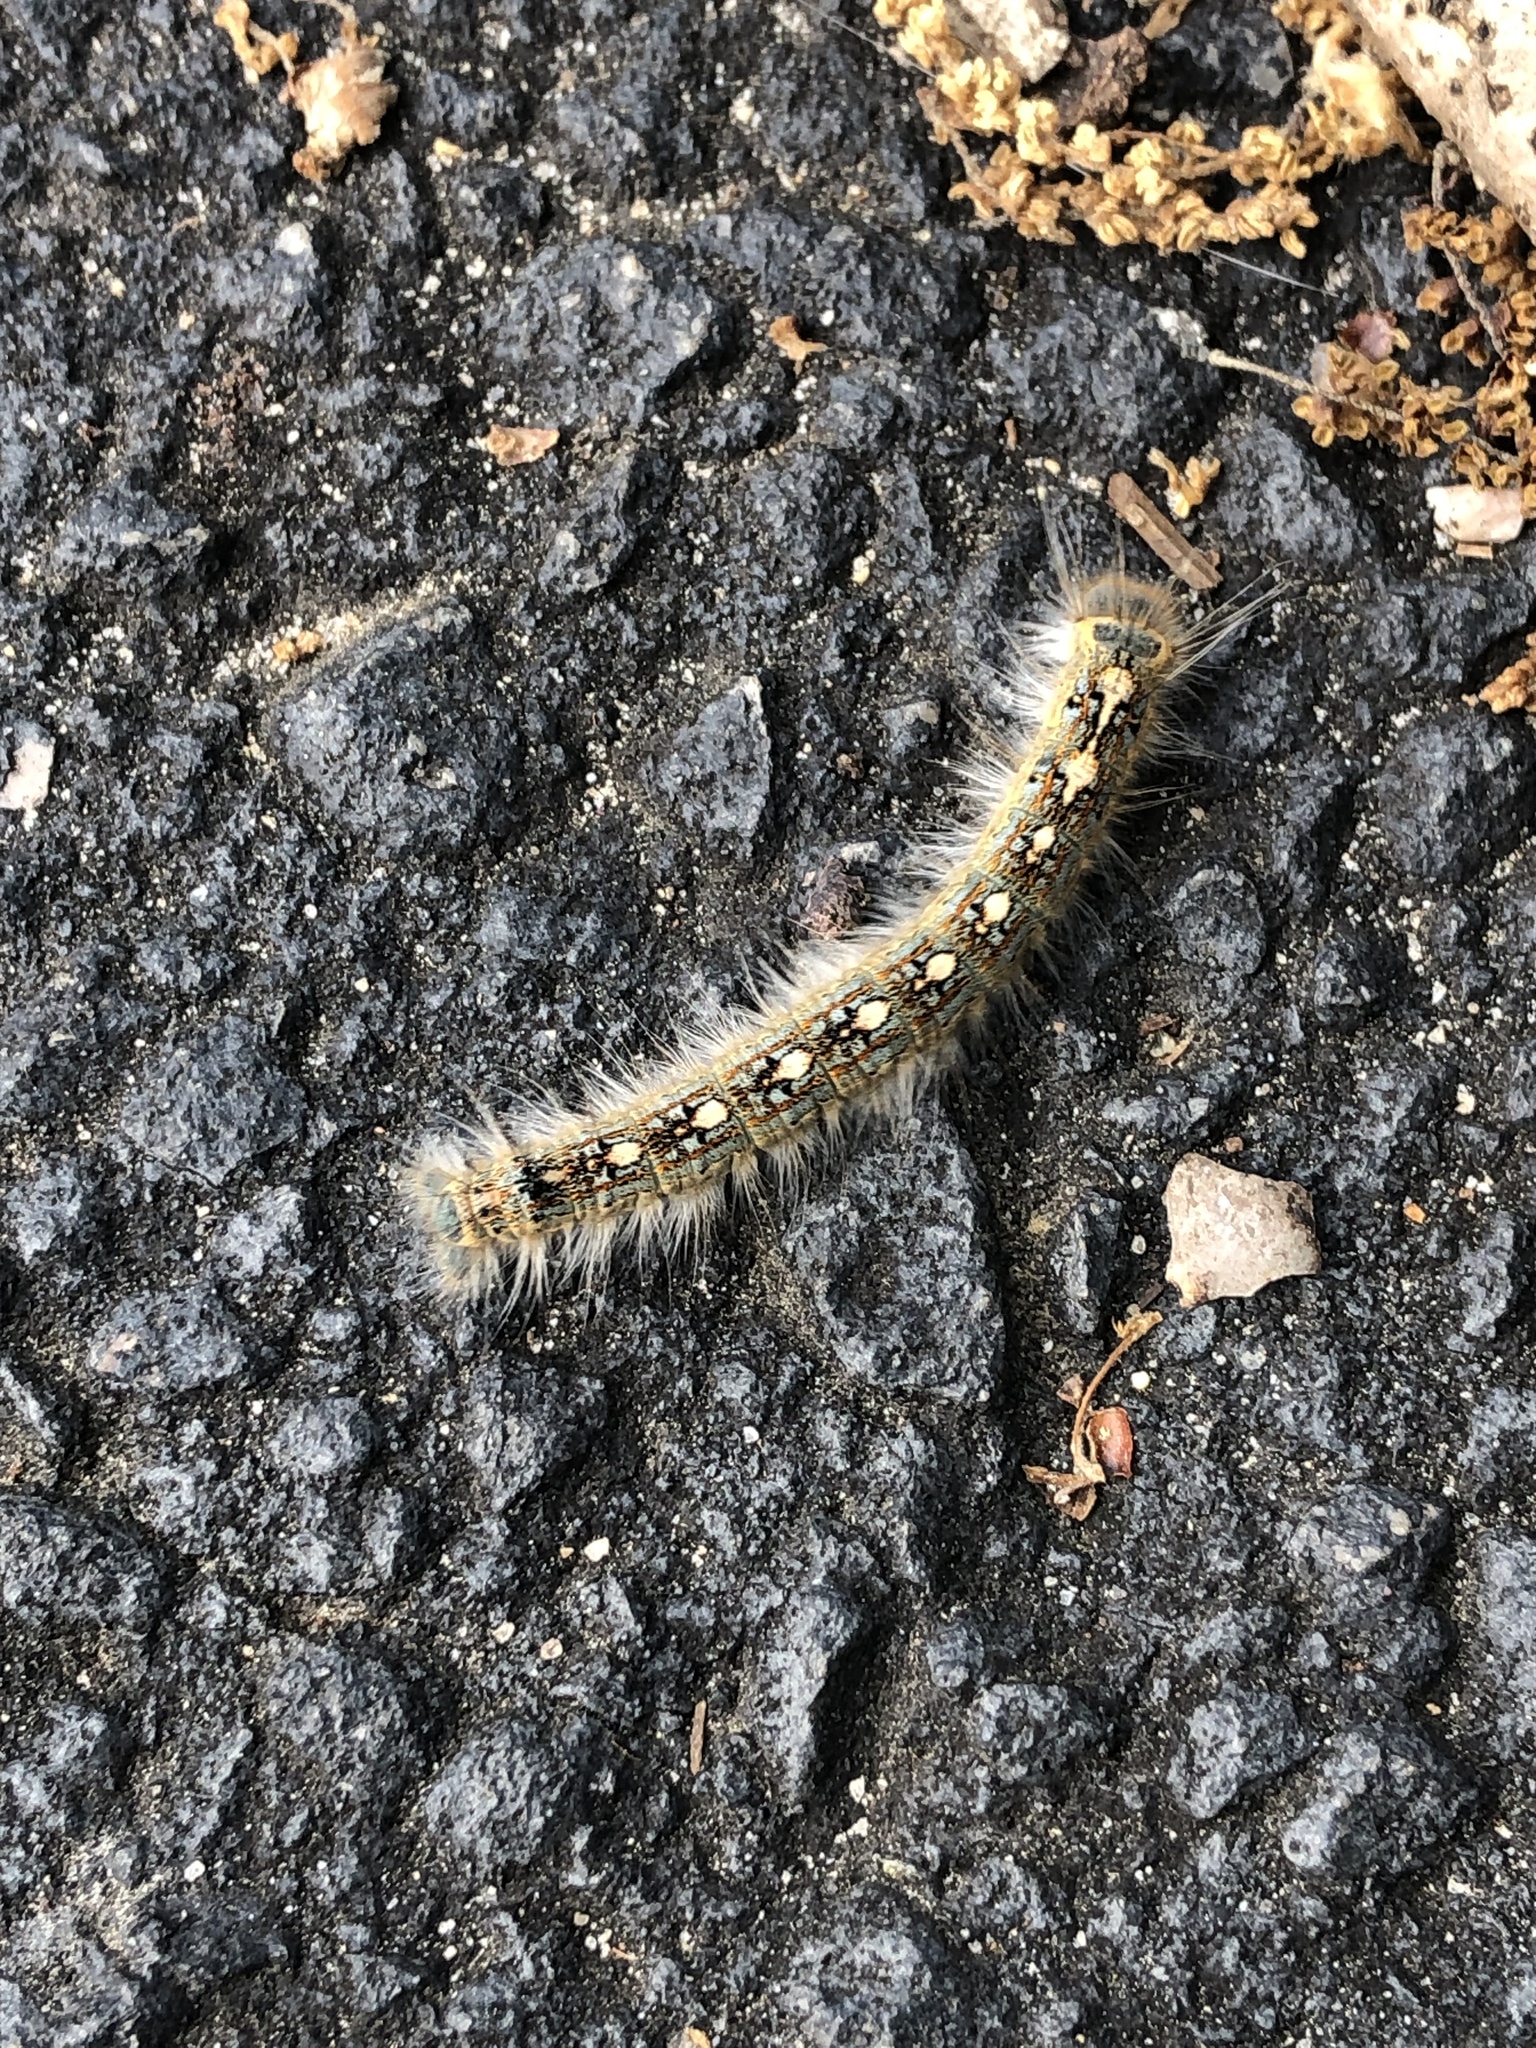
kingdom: Animalia
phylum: Arthropoda
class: Insecta
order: Lepidoptera
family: Lasiocampidae
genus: Malacosoma
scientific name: Malacosoma disstria
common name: Forest tent caterpillar
